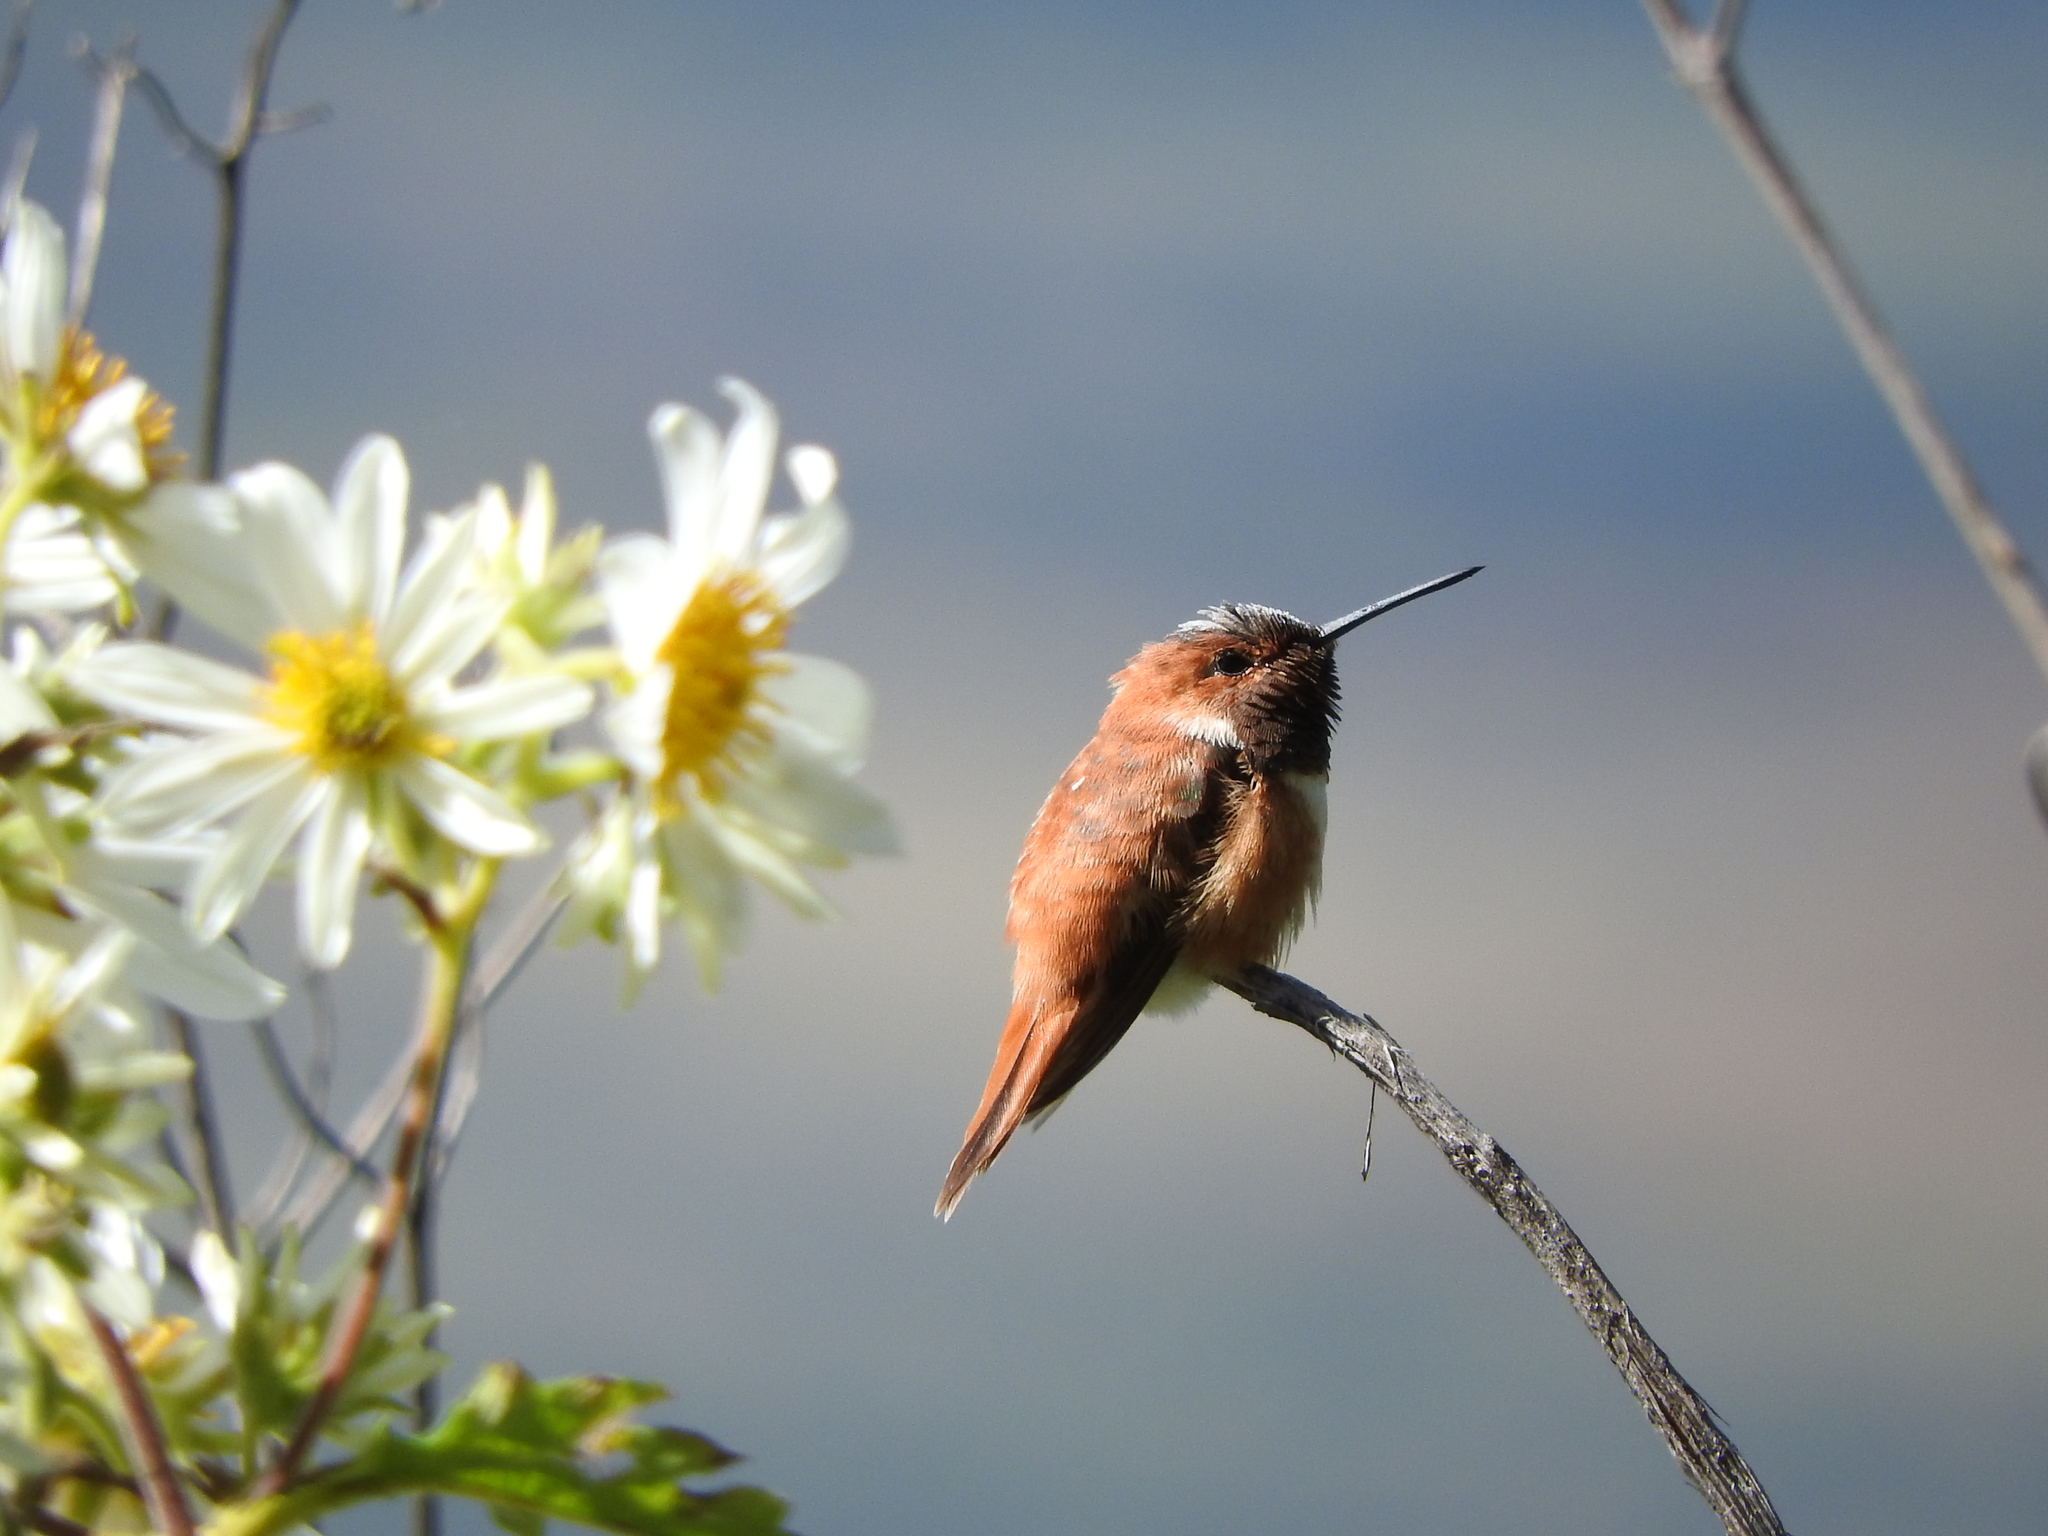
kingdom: Animalia
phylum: Chordata
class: Aves
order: Apodiformes
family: Trochilidae
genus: Selasphorus
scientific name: Selasphorus rufus
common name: Rufous hummingbird
